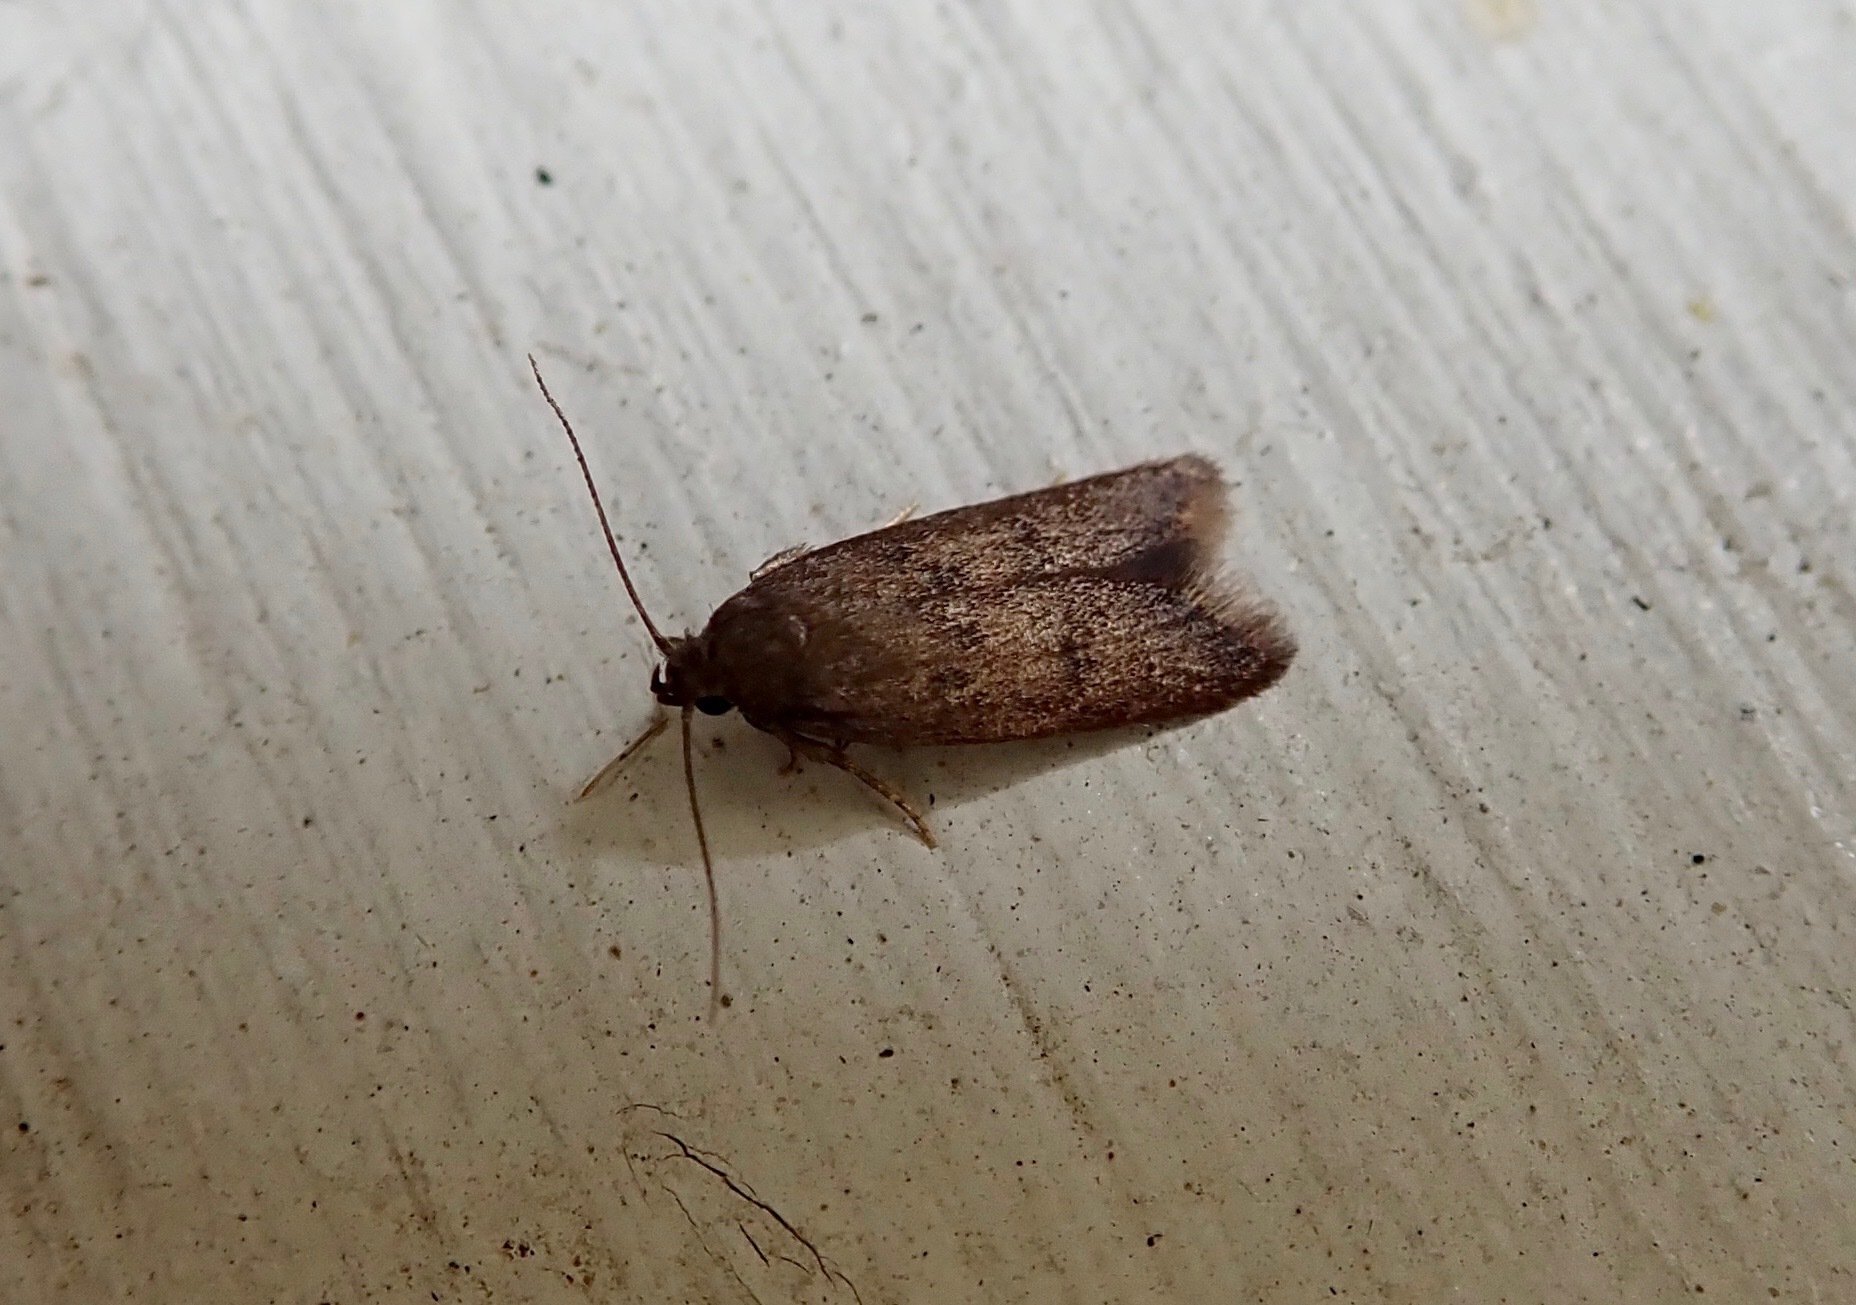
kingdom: Animalia
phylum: Arthropoda
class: Insecta
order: Lepidoptera
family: Oecophoridae
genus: Tachystola
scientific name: Tachystola acroxantha
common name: Ruddy streak
